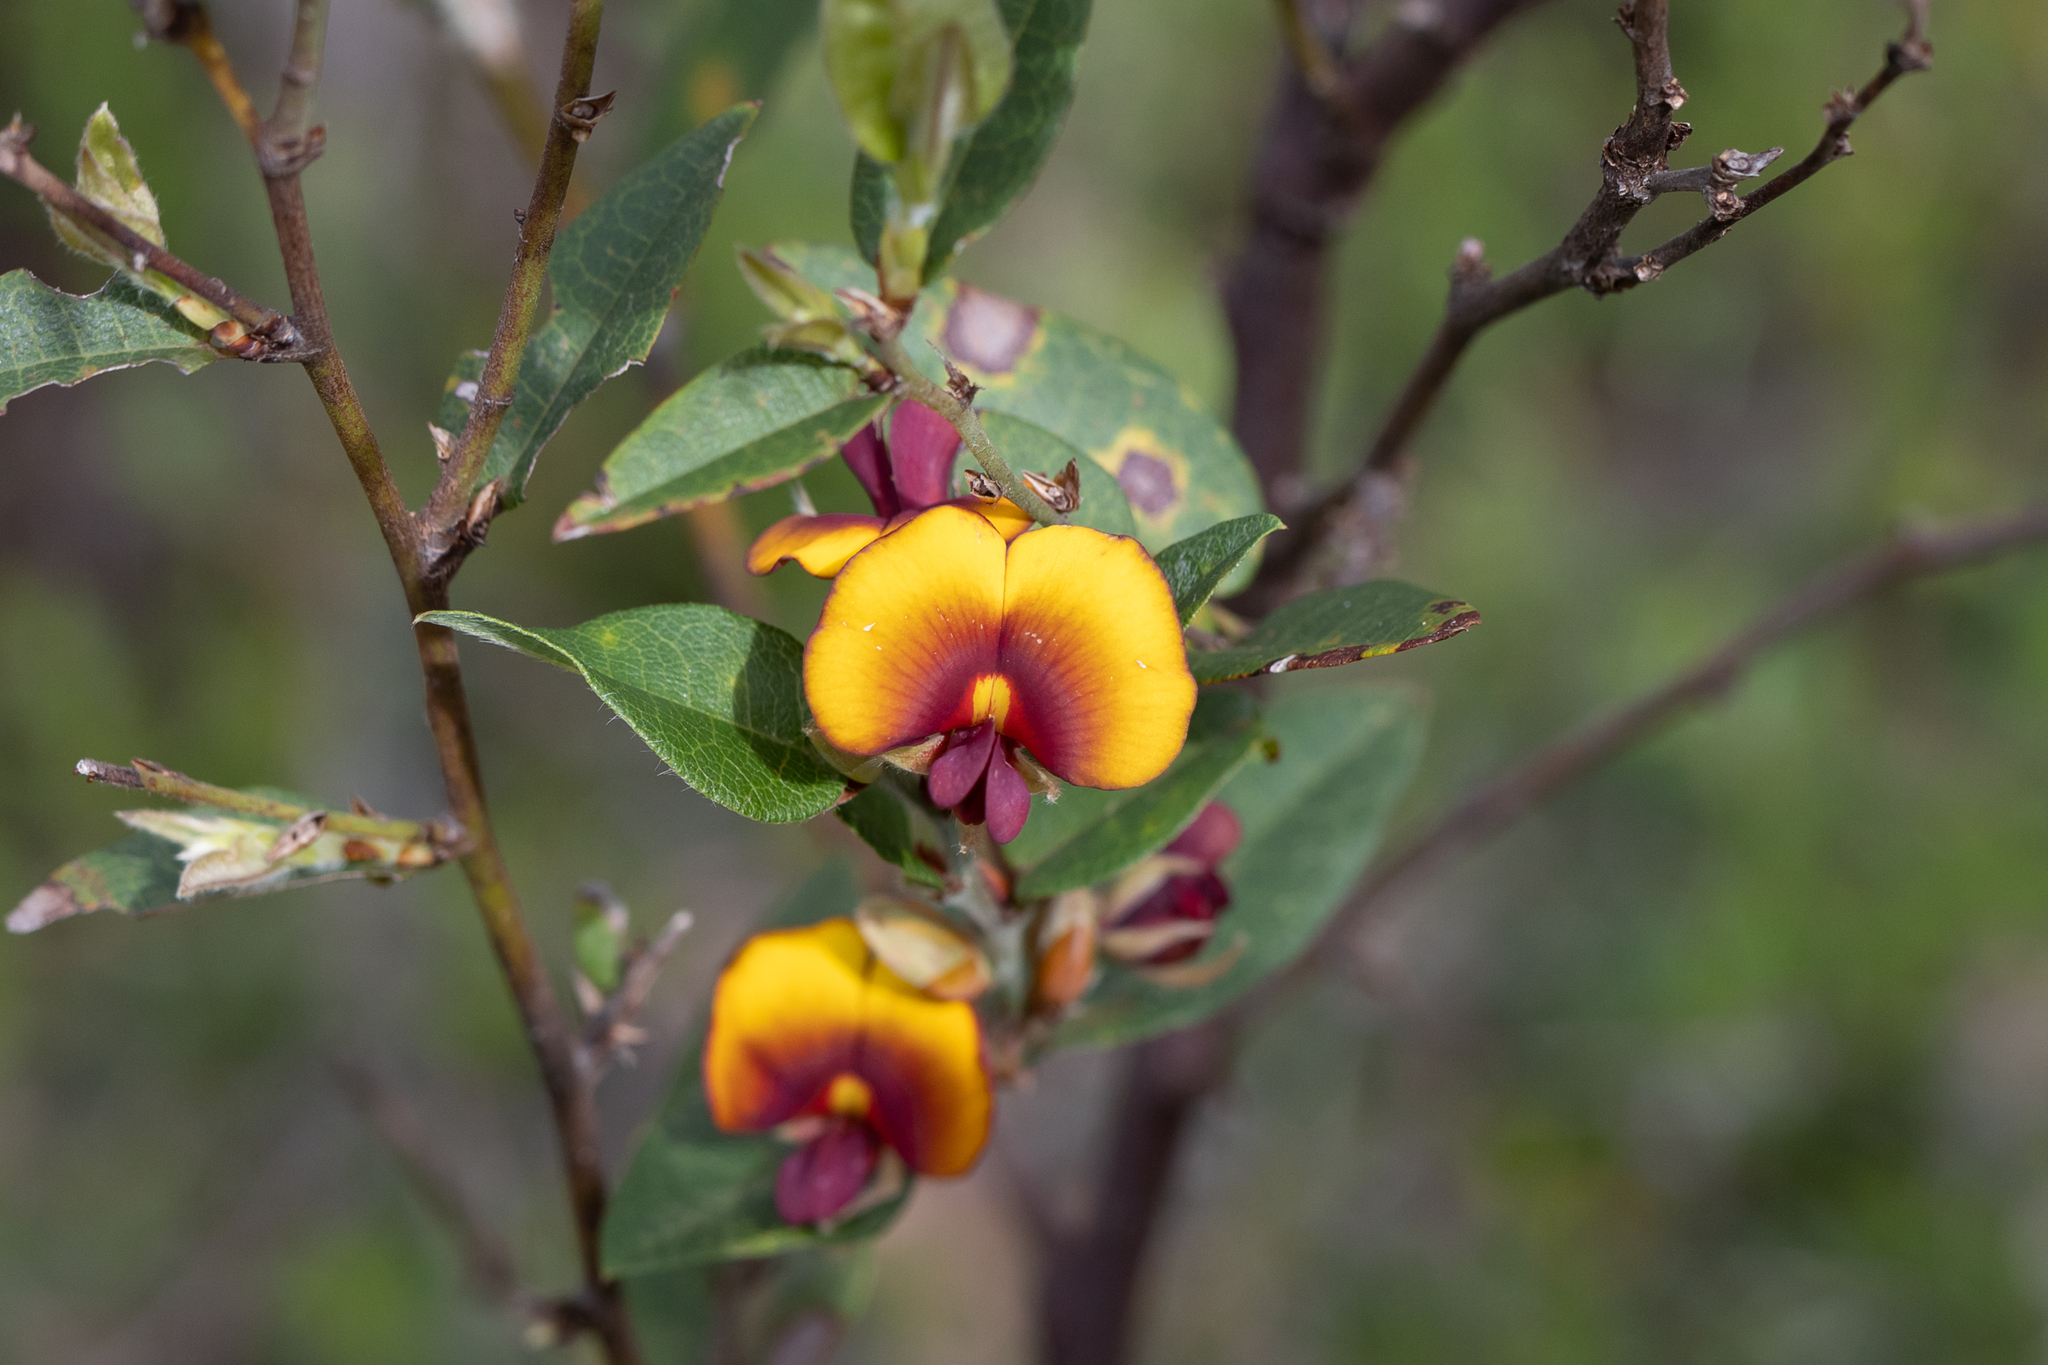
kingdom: Plantae
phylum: Tracheophyta
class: Magnoliopsida
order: Fabales
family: Fabaceae
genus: Bossiaea
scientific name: Bossiaea ornata
